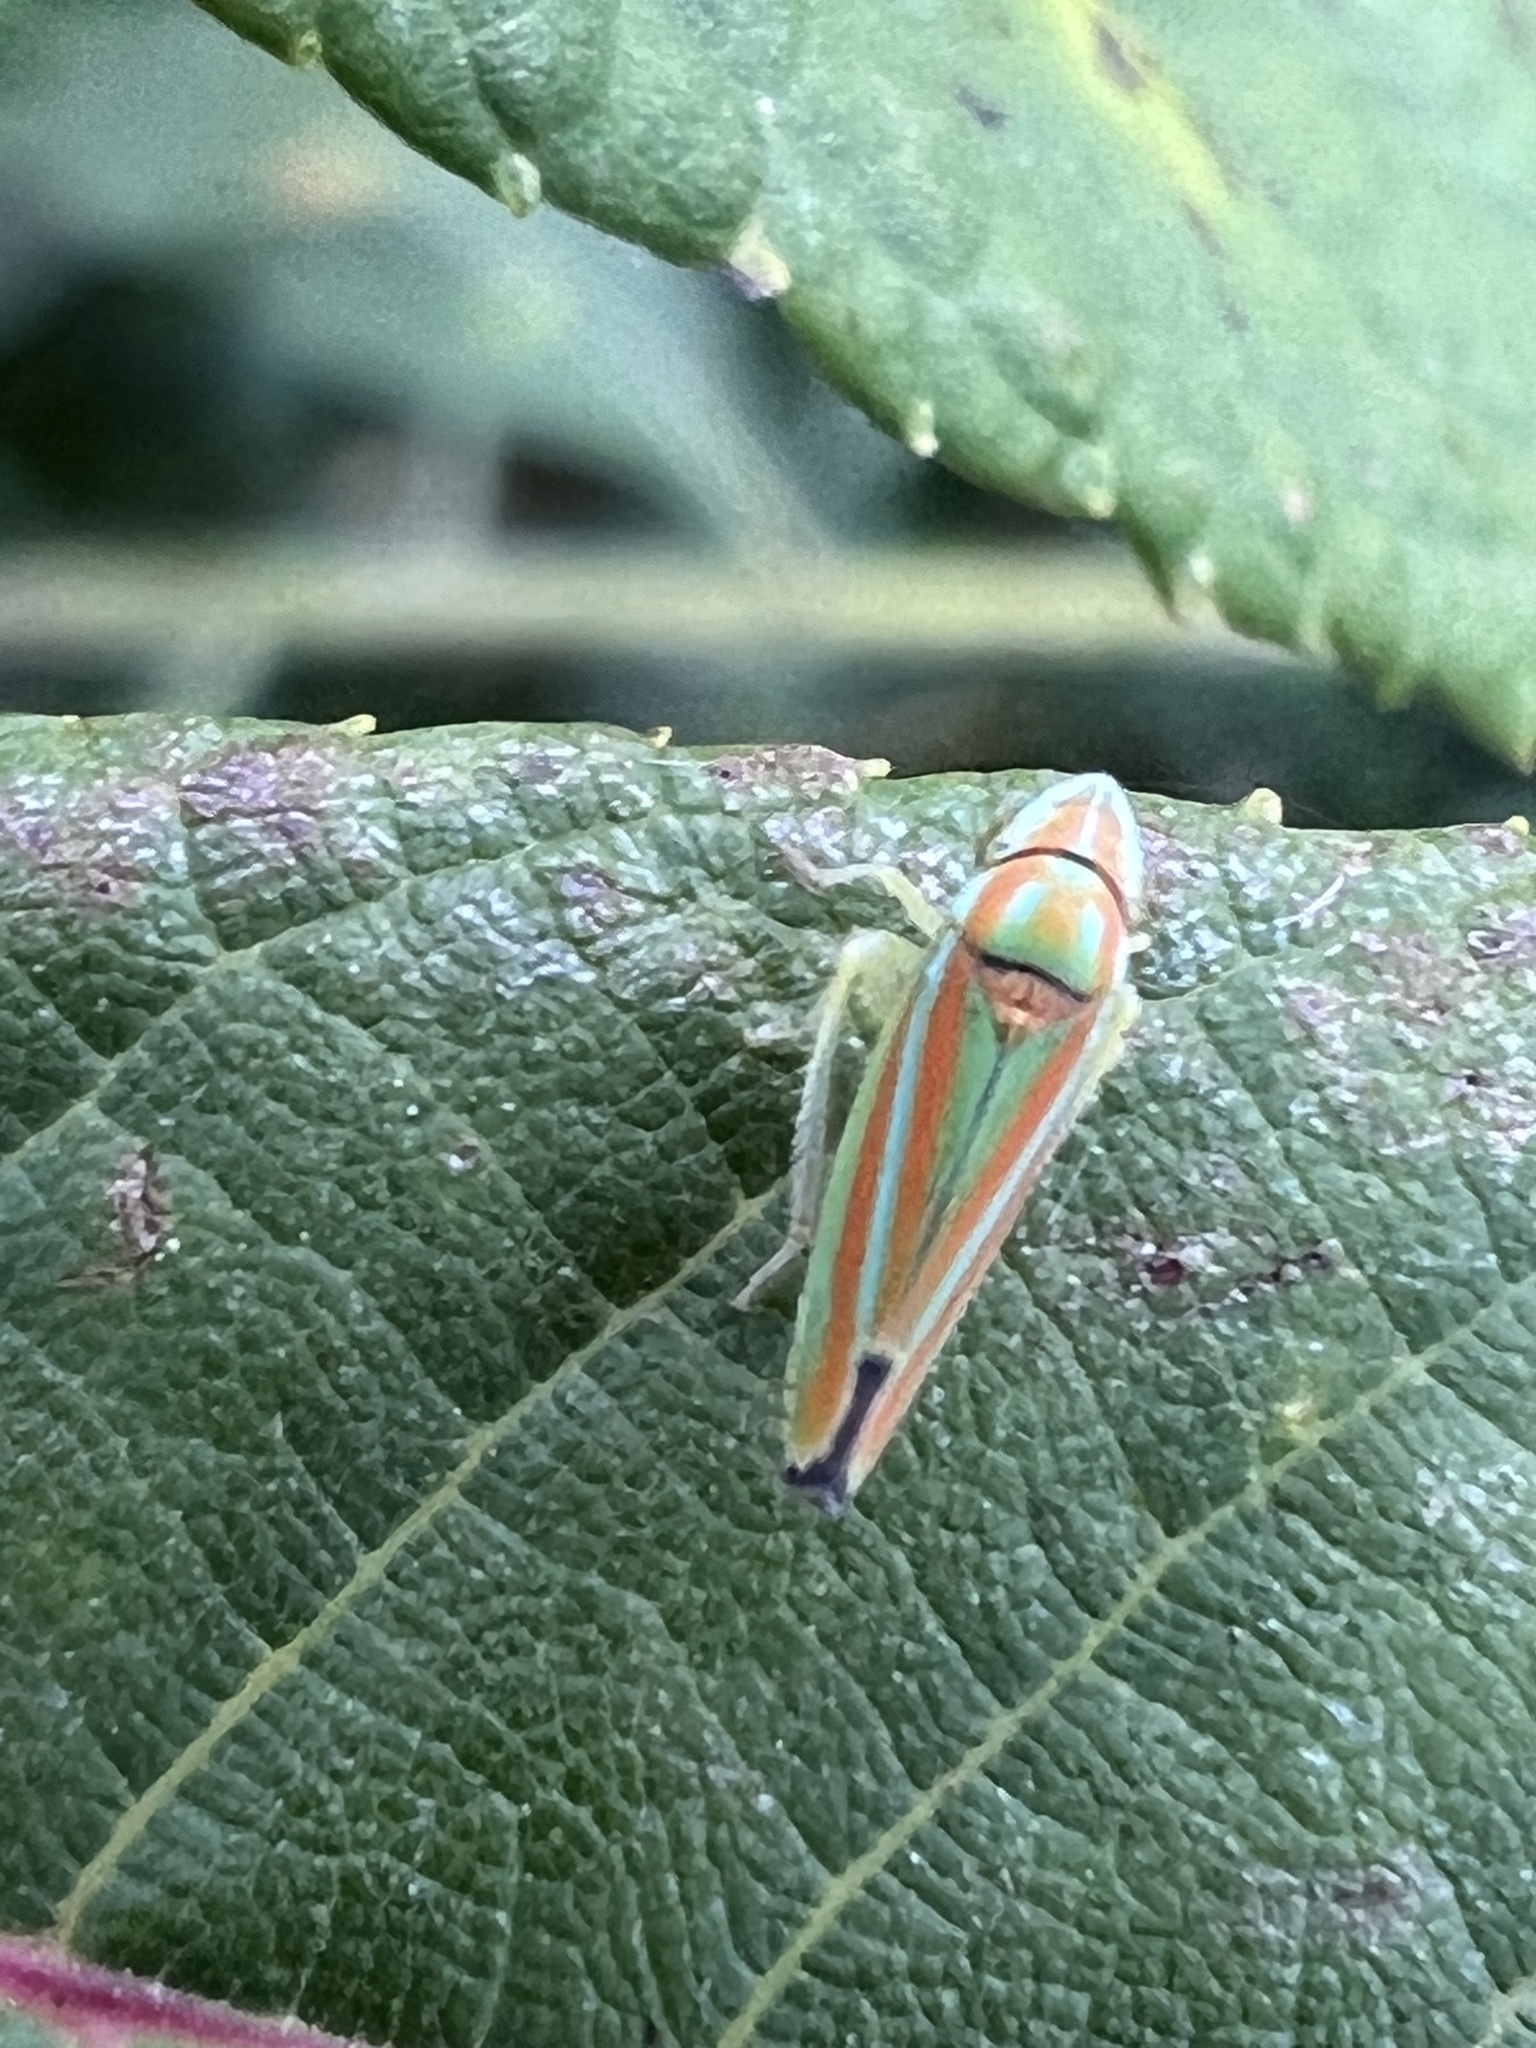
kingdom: Animalia
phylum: Arthropoda
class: Insecta
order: Hemiptera
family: Cicadellidae
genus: Graphocephala
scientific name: Graphocephala versuta
